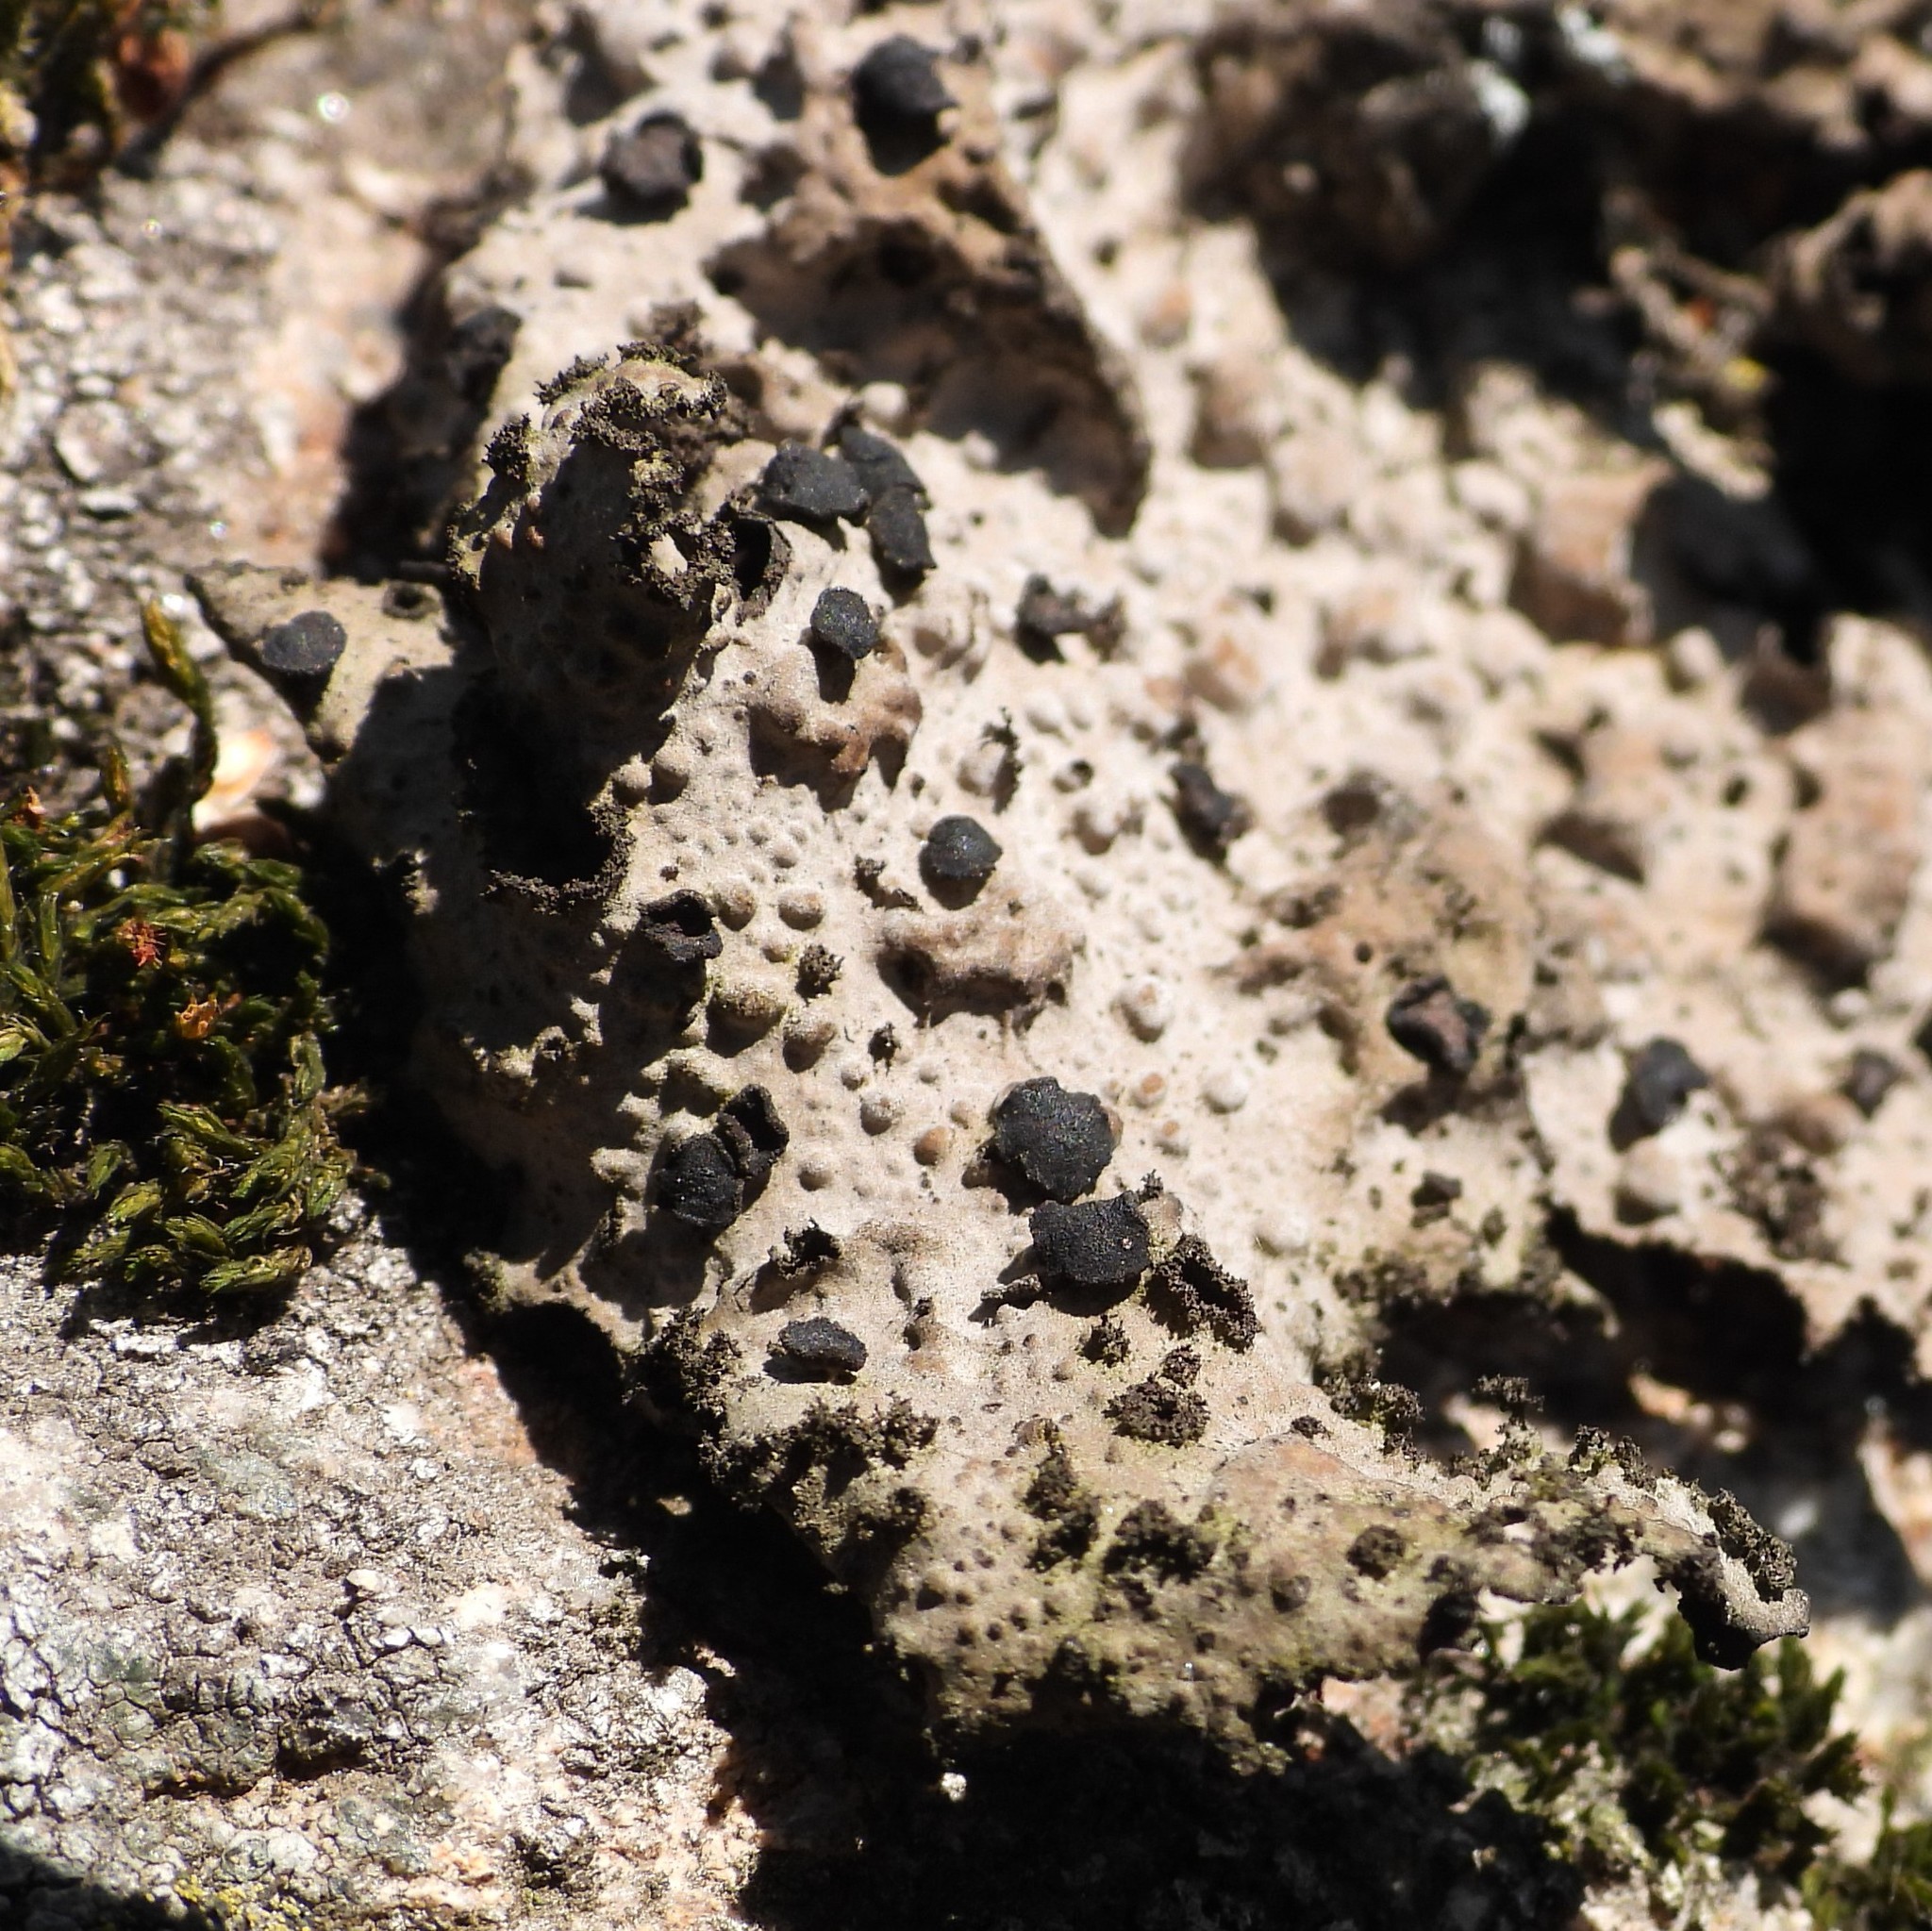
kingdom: Fungi
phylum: Ascomycota
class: Lecanoromycetes
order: Umbilicariales
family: Umbilicariaceae
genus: Lasallia
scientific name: Lasallia pustulata
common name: Blistered toadskin lichen
